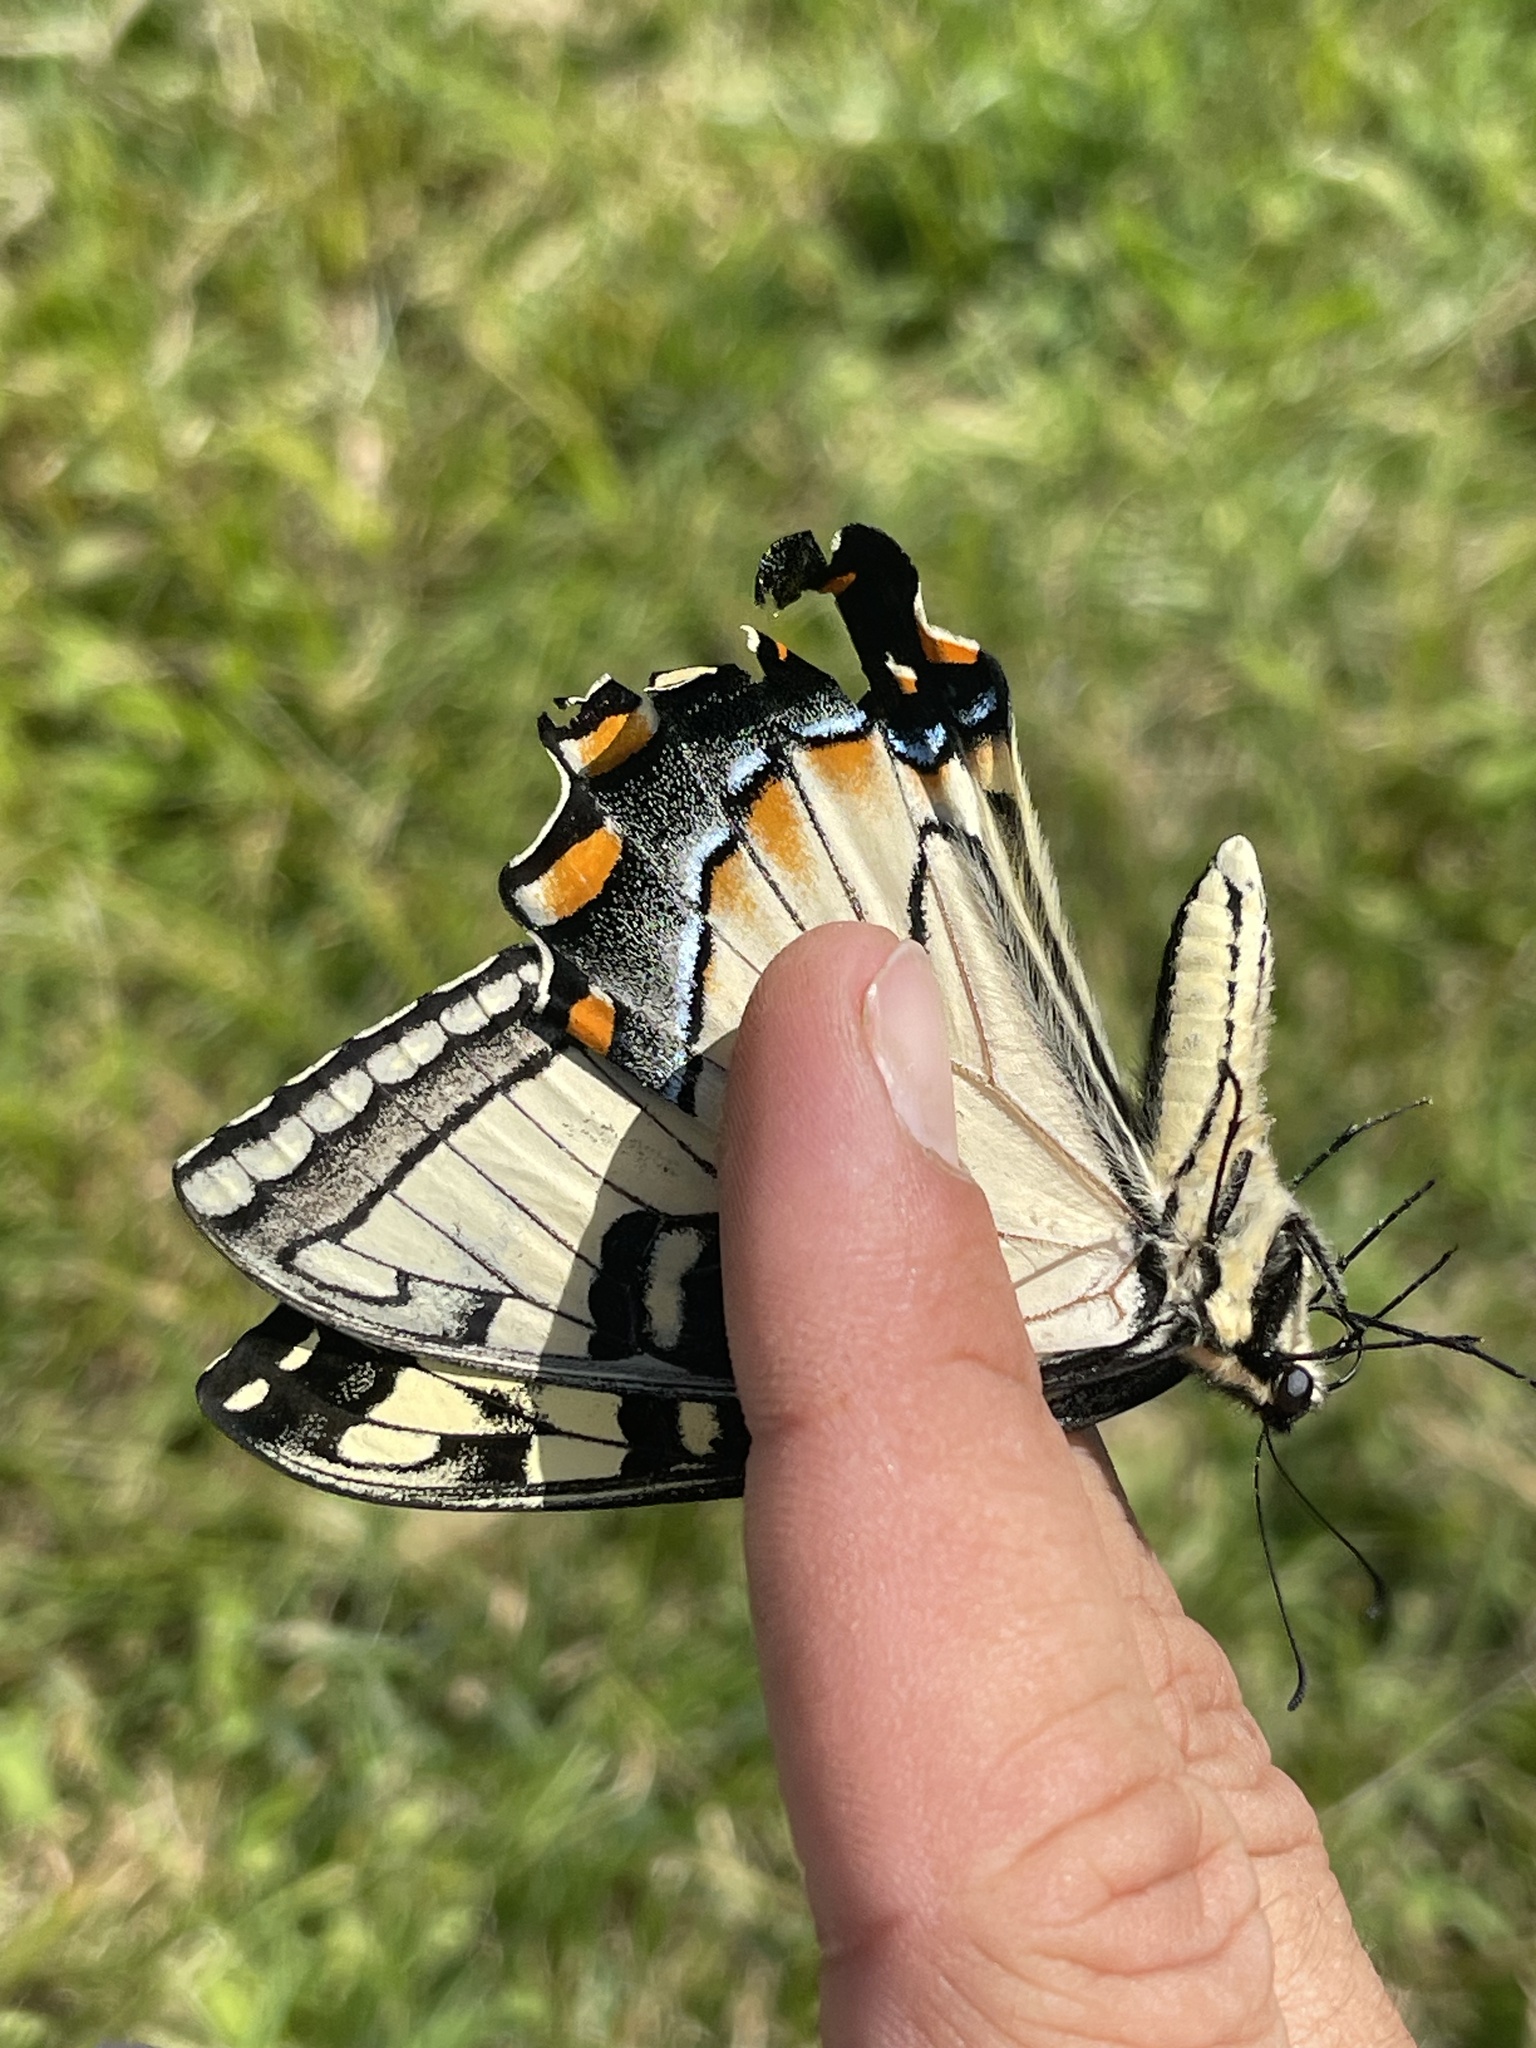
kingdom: Animalia
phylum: Arthropoda
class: Insecta
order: Lepidoptera
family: Papilionidae
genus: Papilio
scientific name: Papilio glaucus
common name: Tiger swallowtail
